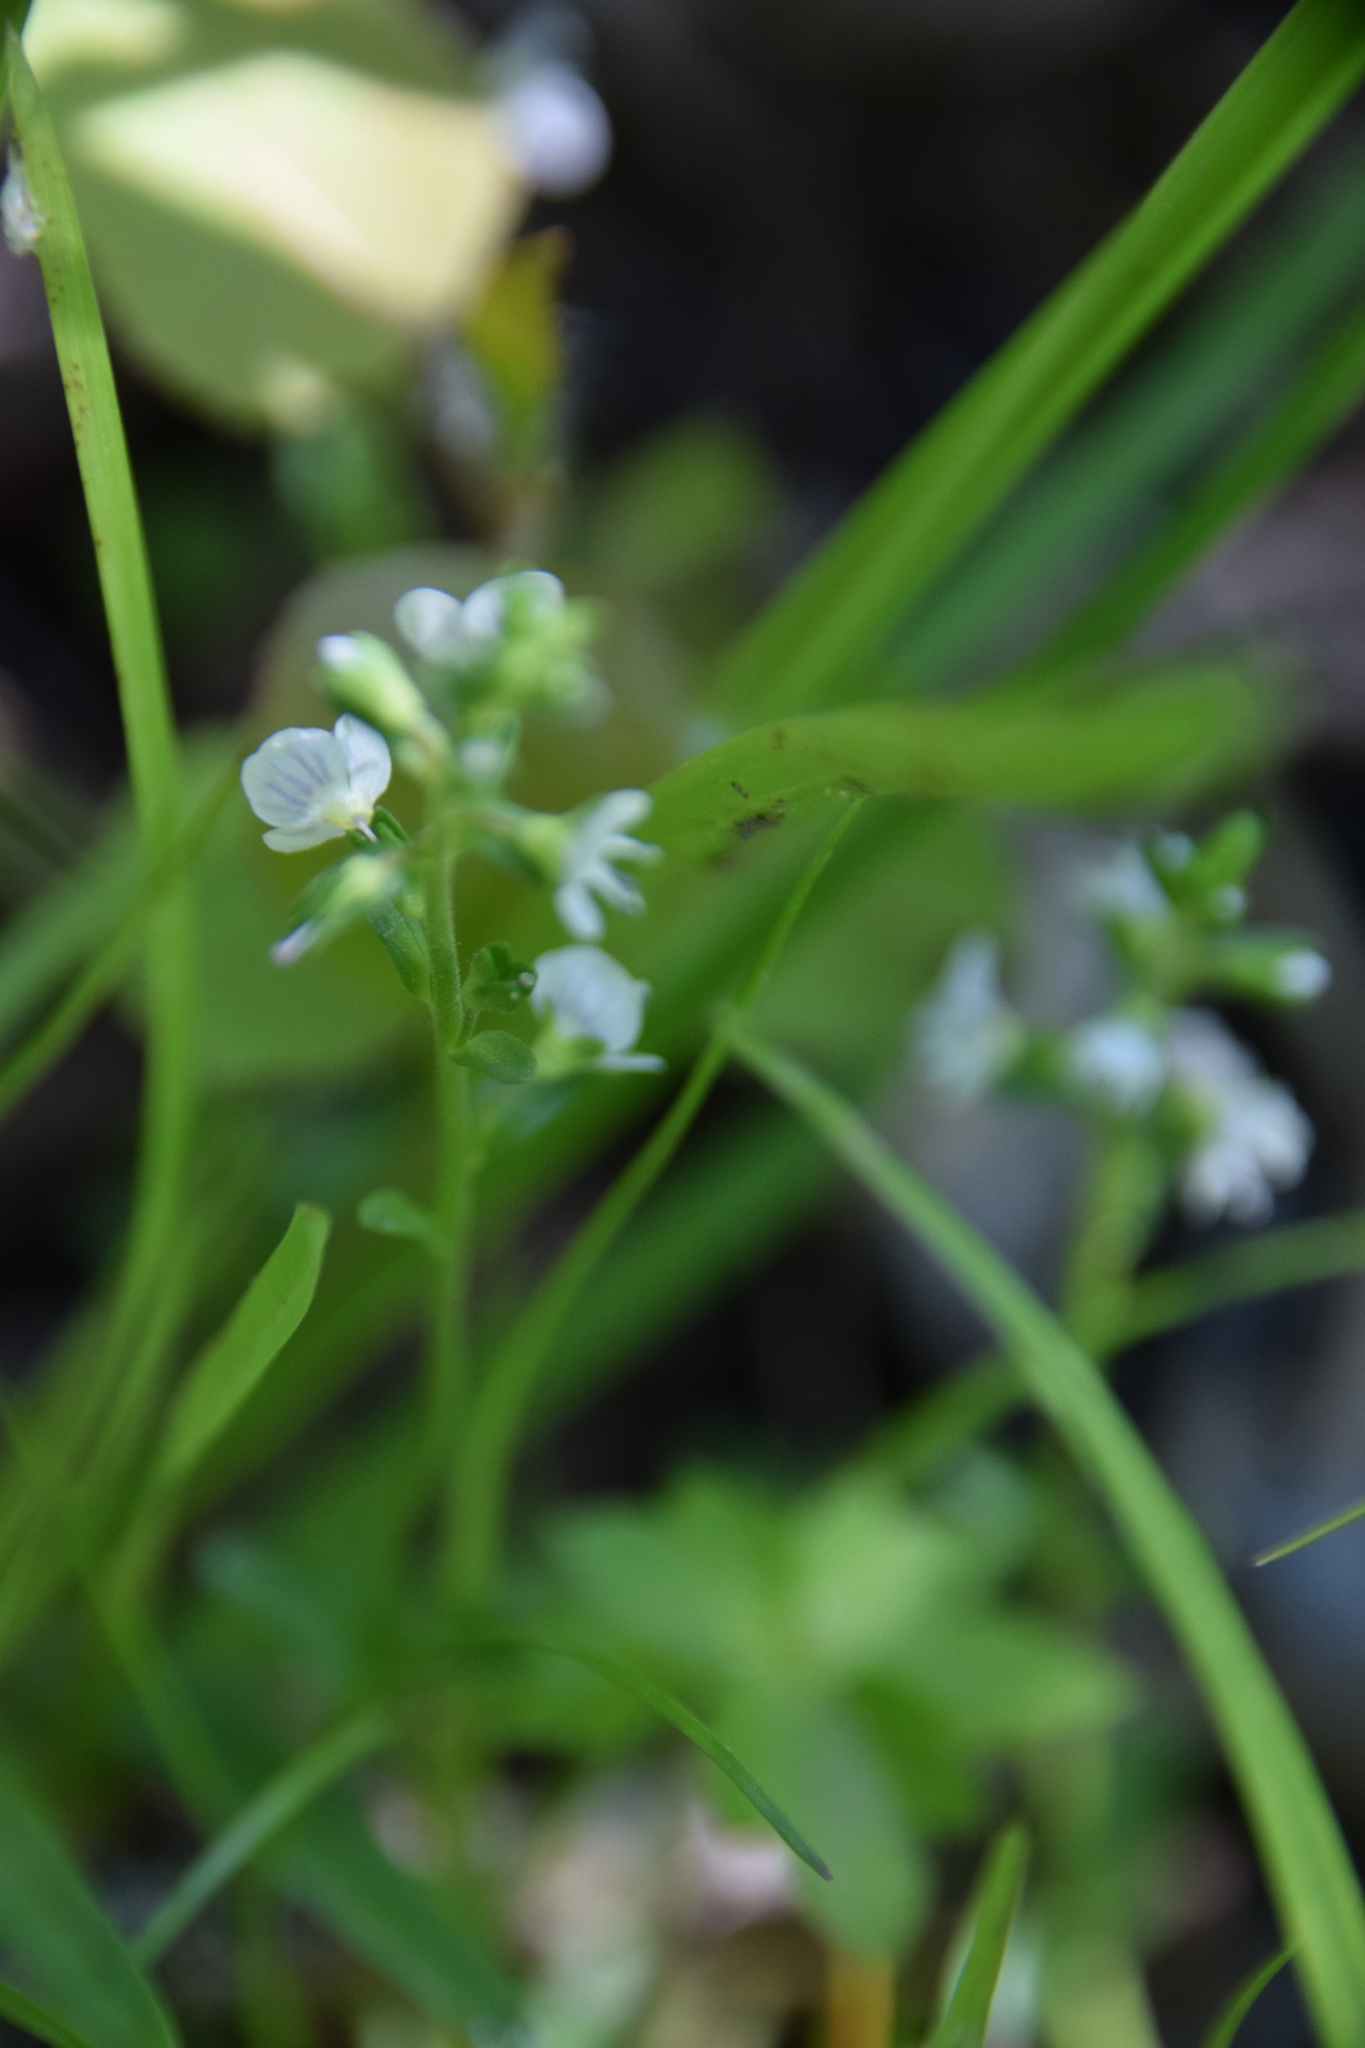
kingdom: Plantae
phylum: Tracheophyta
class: Magnoliopsida
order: Lamiales
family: Plantaginaceae
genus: Veronica
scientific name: Veronica serpyllifolia
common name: Thyme-leaved speedwell
